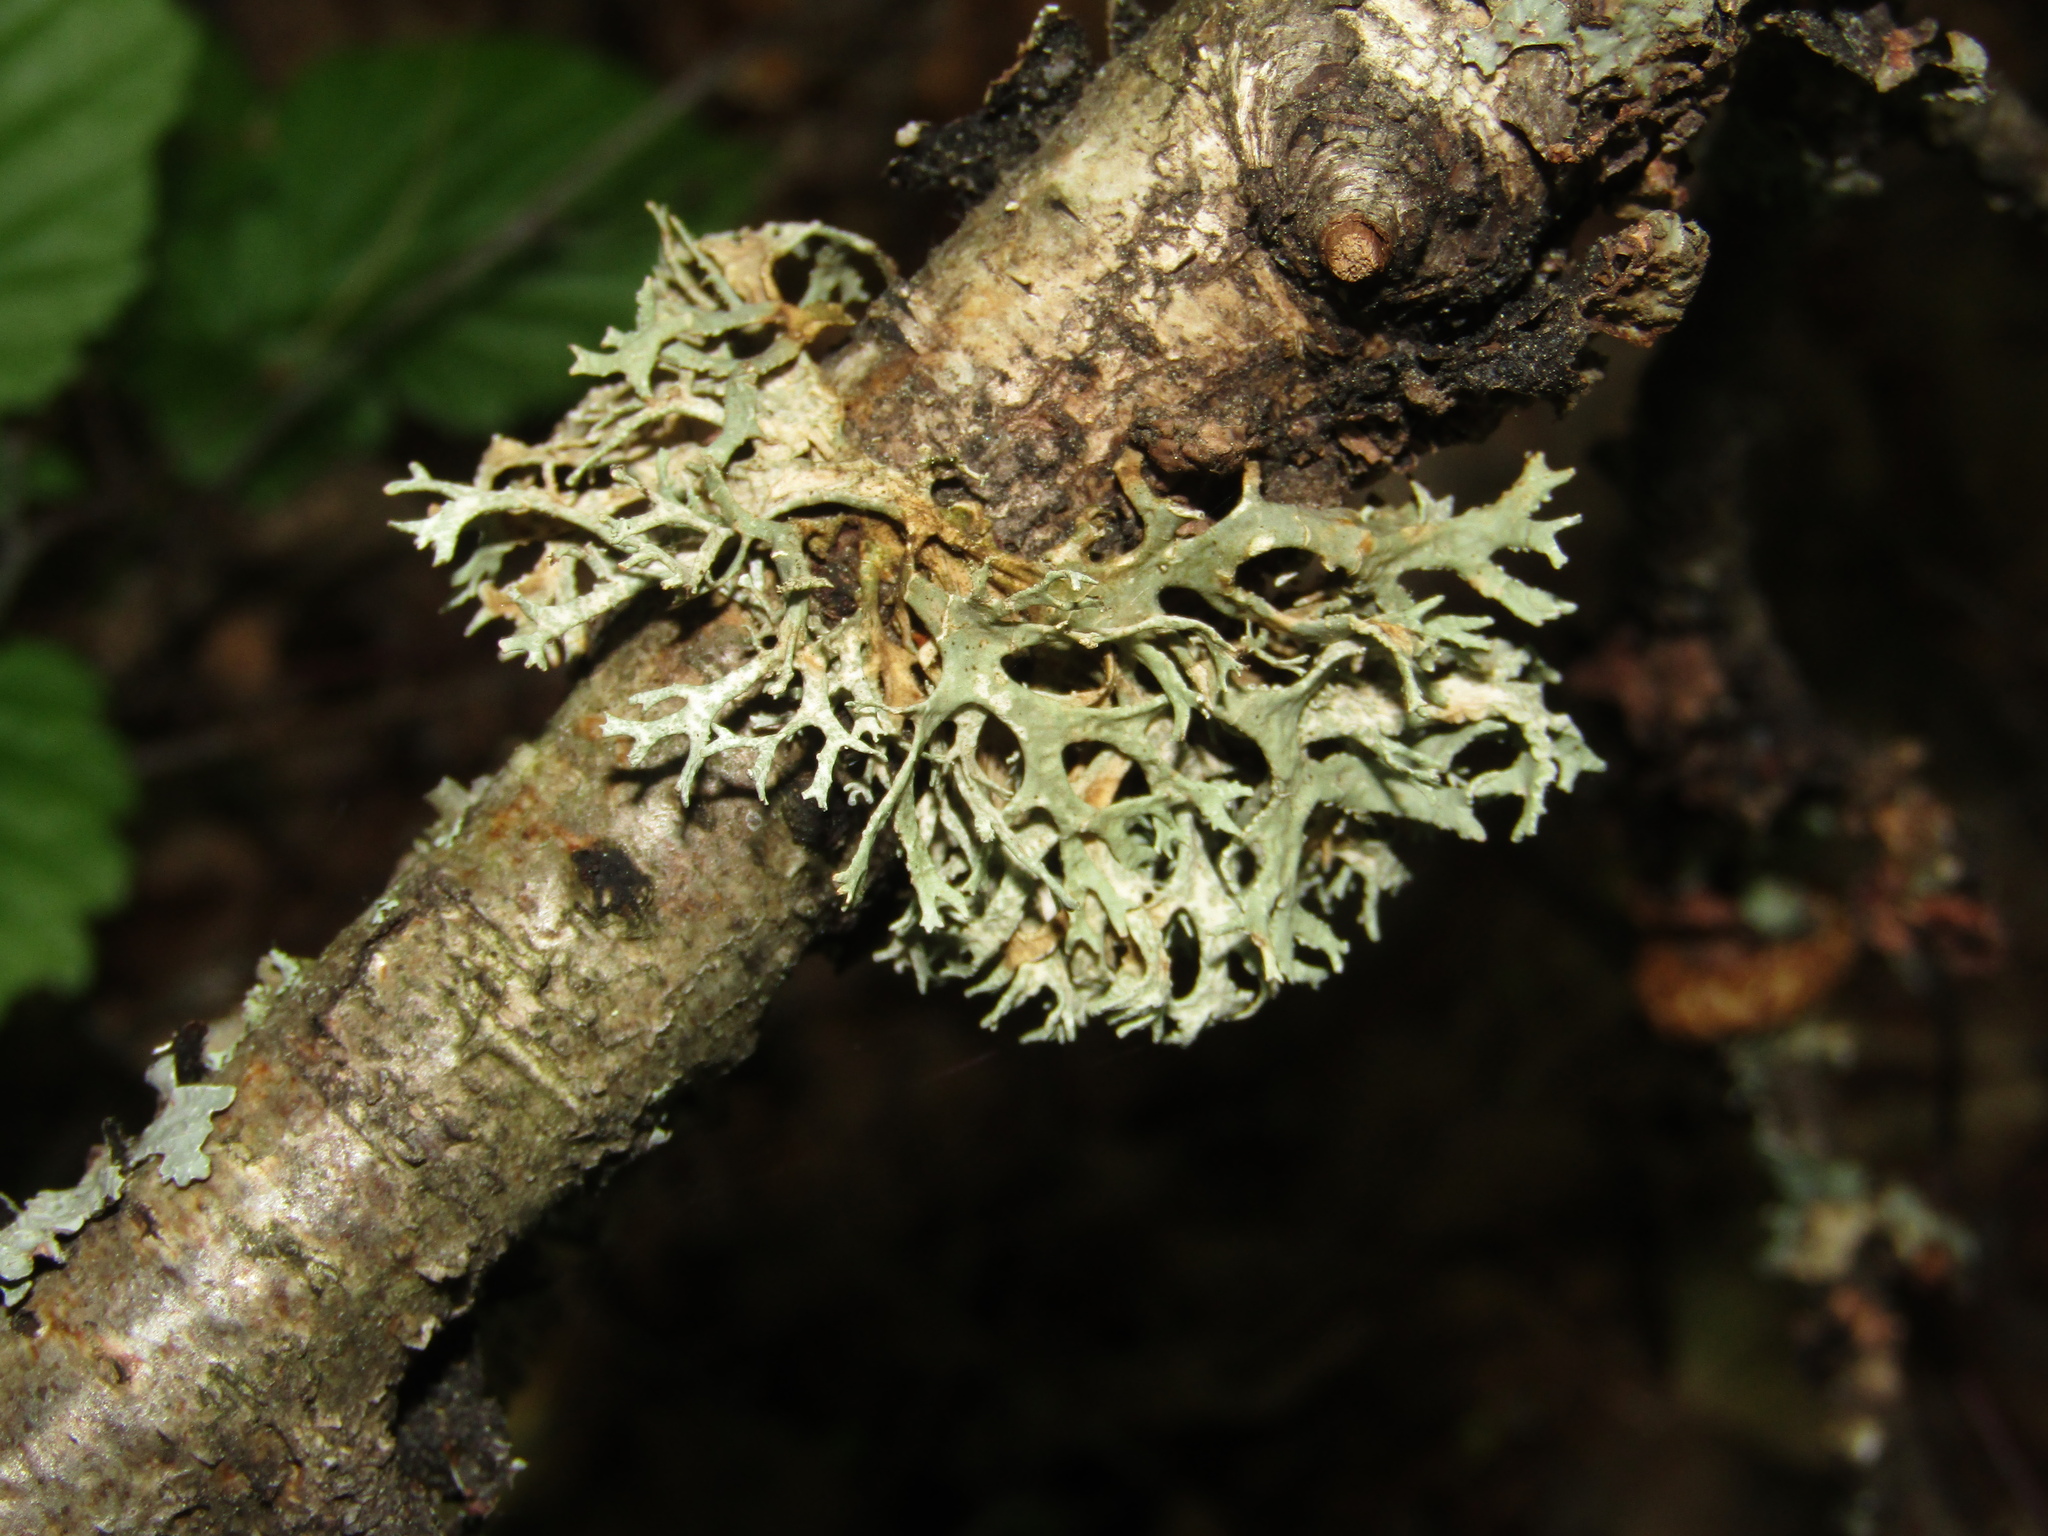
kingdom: Fungi
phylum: Ascomycota
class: Lecanoromycetes
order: Lecanorales
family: Parmeliaceae
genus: Evernia
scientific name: Evernia prunastri
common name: Oak moss
